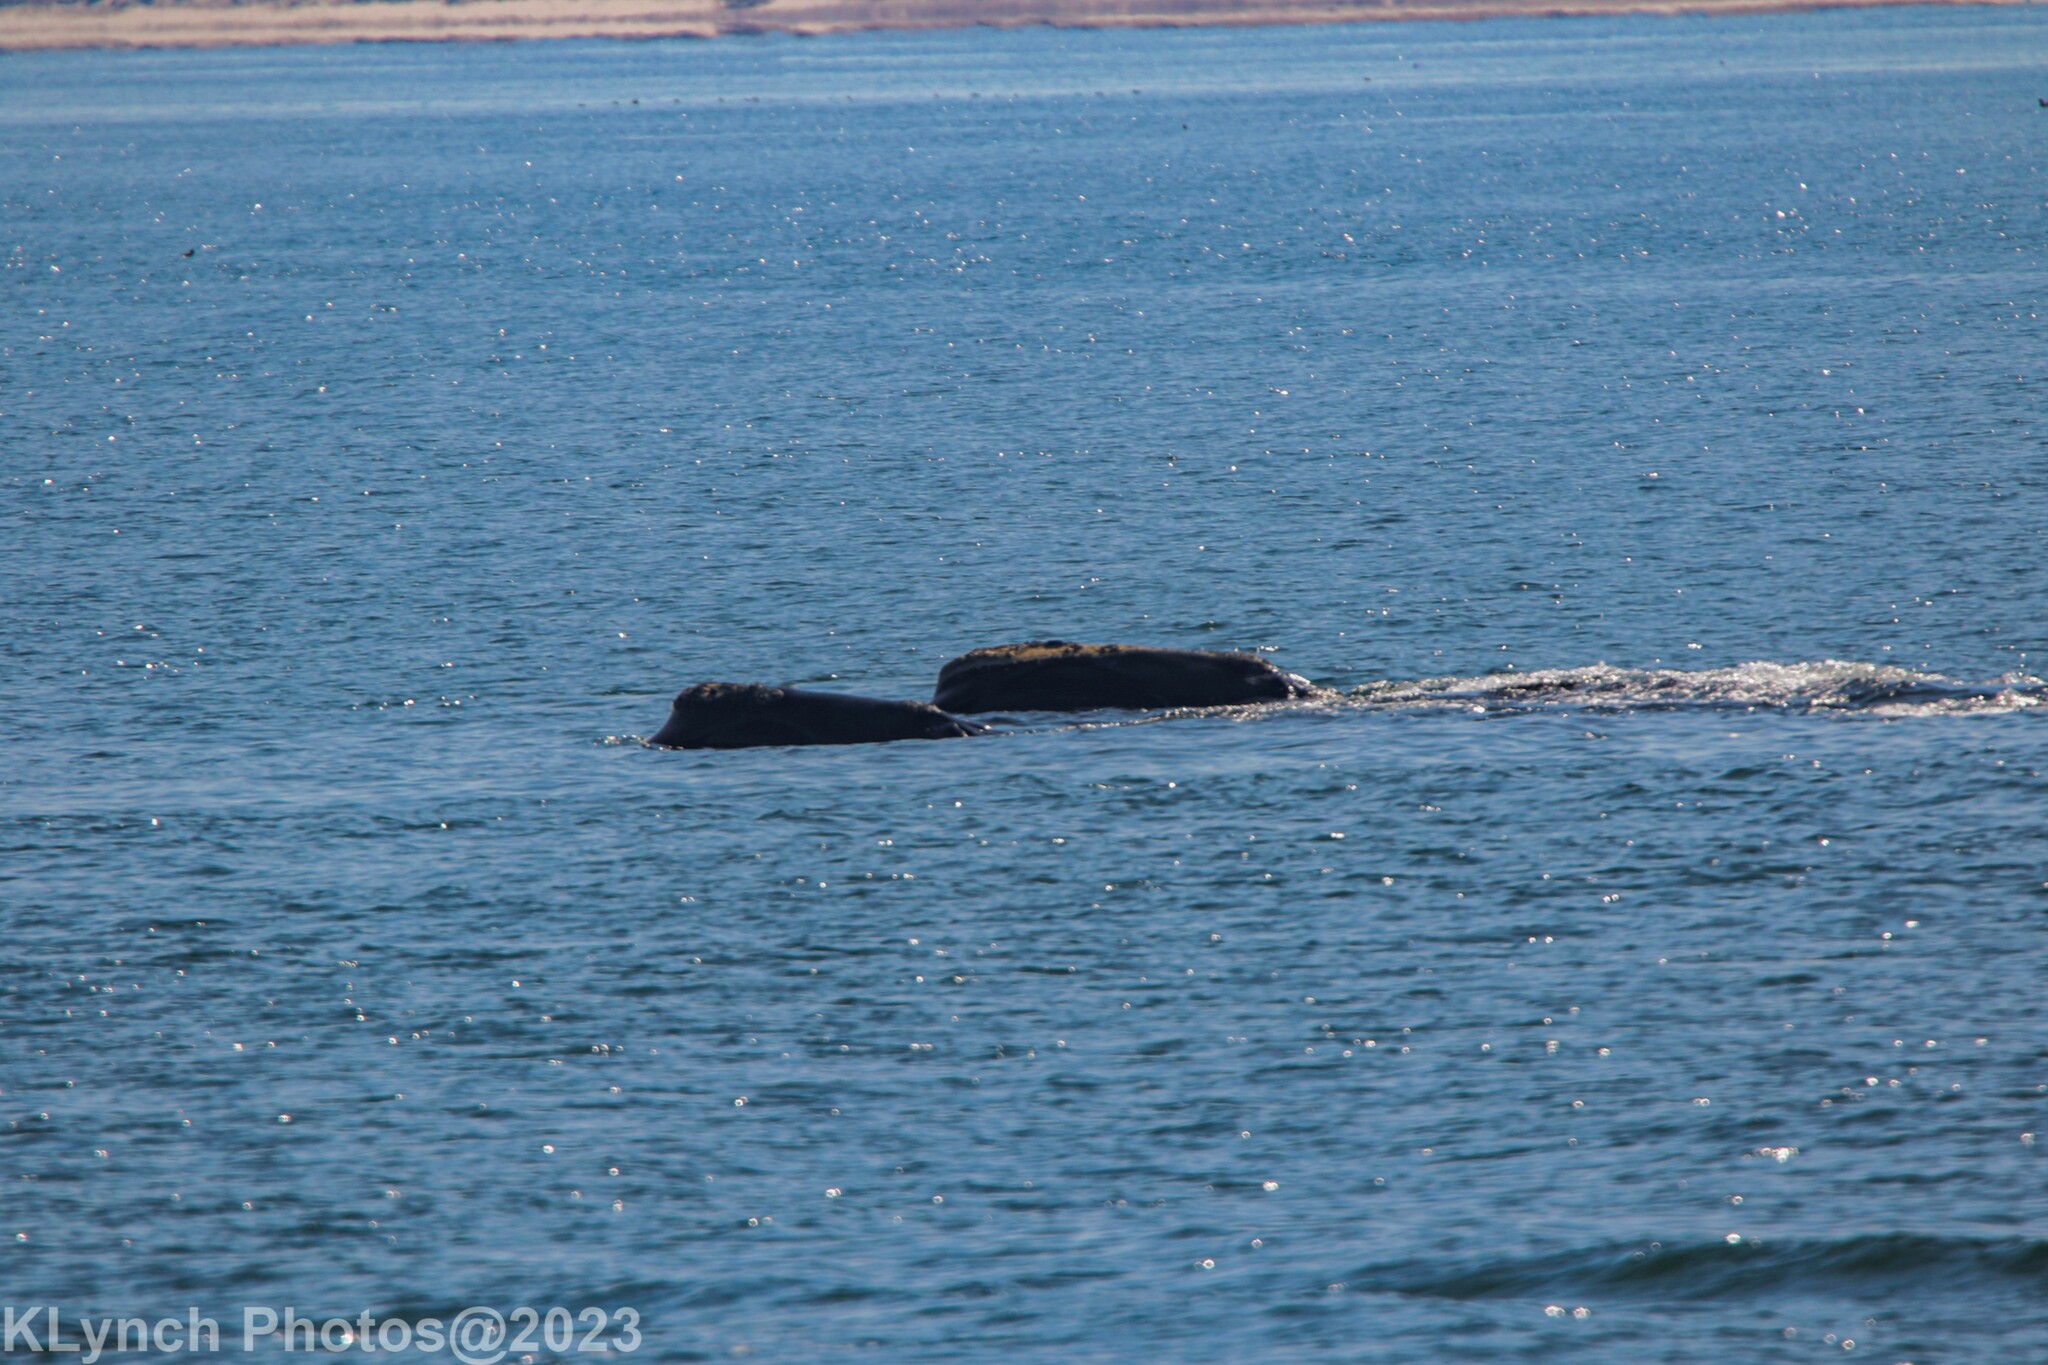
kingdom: Animalia
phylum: Chordata
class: Mammalia
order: Cetacea
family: Balaenidae
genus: Eubalaena
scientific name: Eubalaena glacialis
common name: North atlantic right whale
